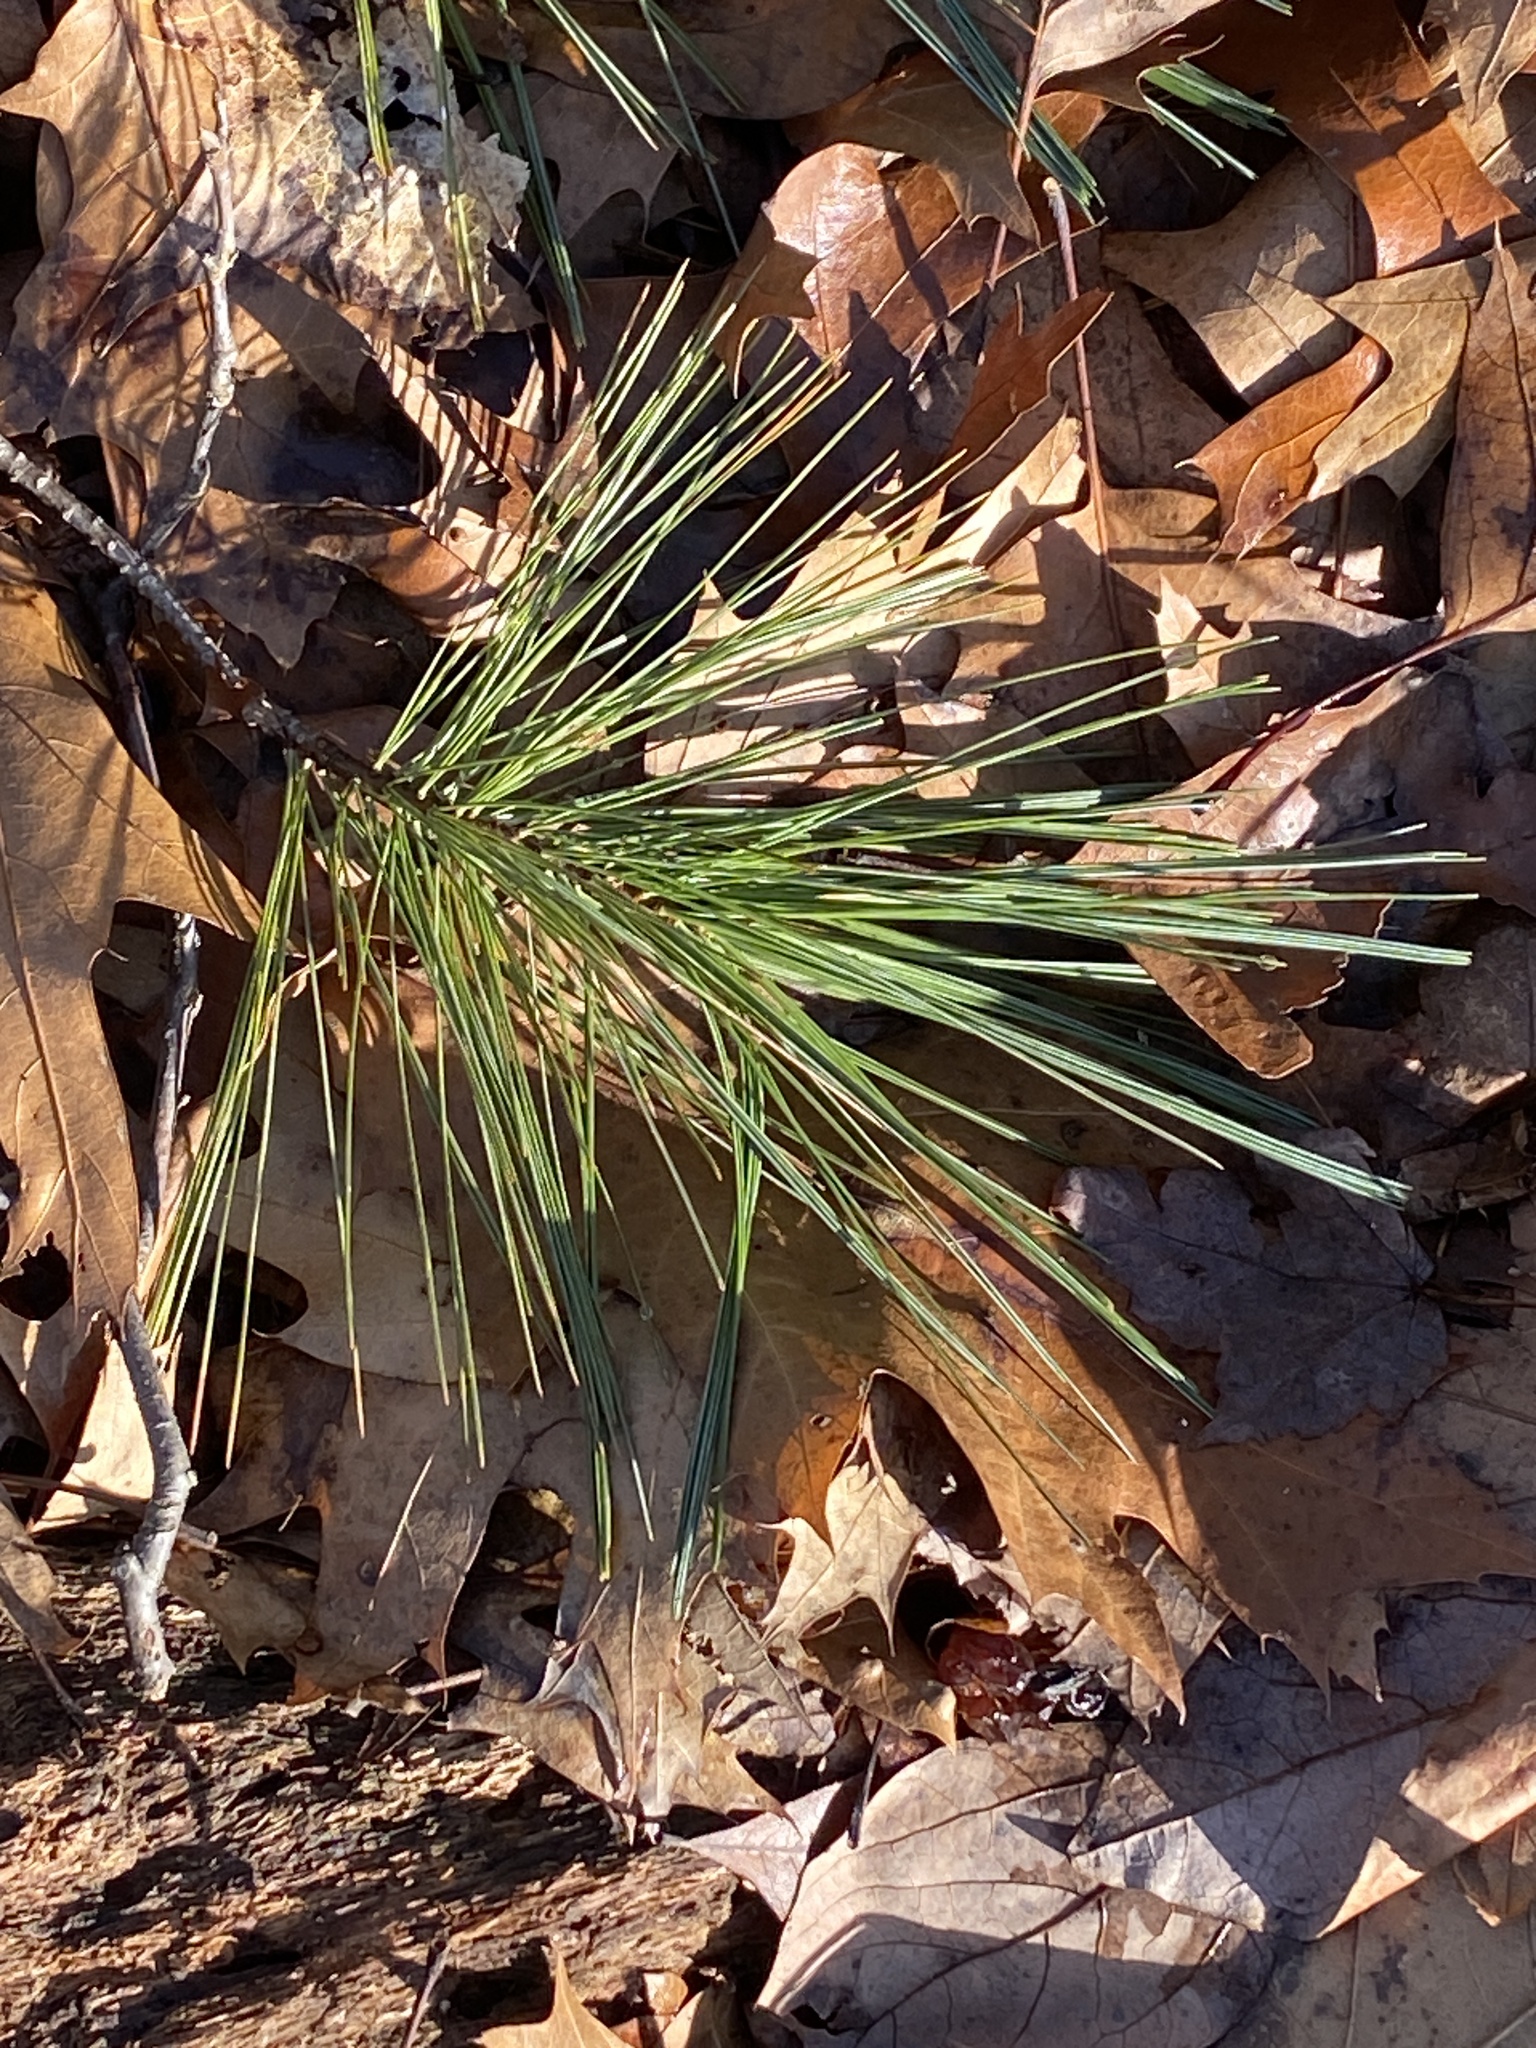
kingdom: Plantae
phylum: Tracheophyta
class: Pinopsida
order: Pinales
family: Pinaceae
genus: Pinus
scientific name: Pinus strobus
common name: Weymouth pine
